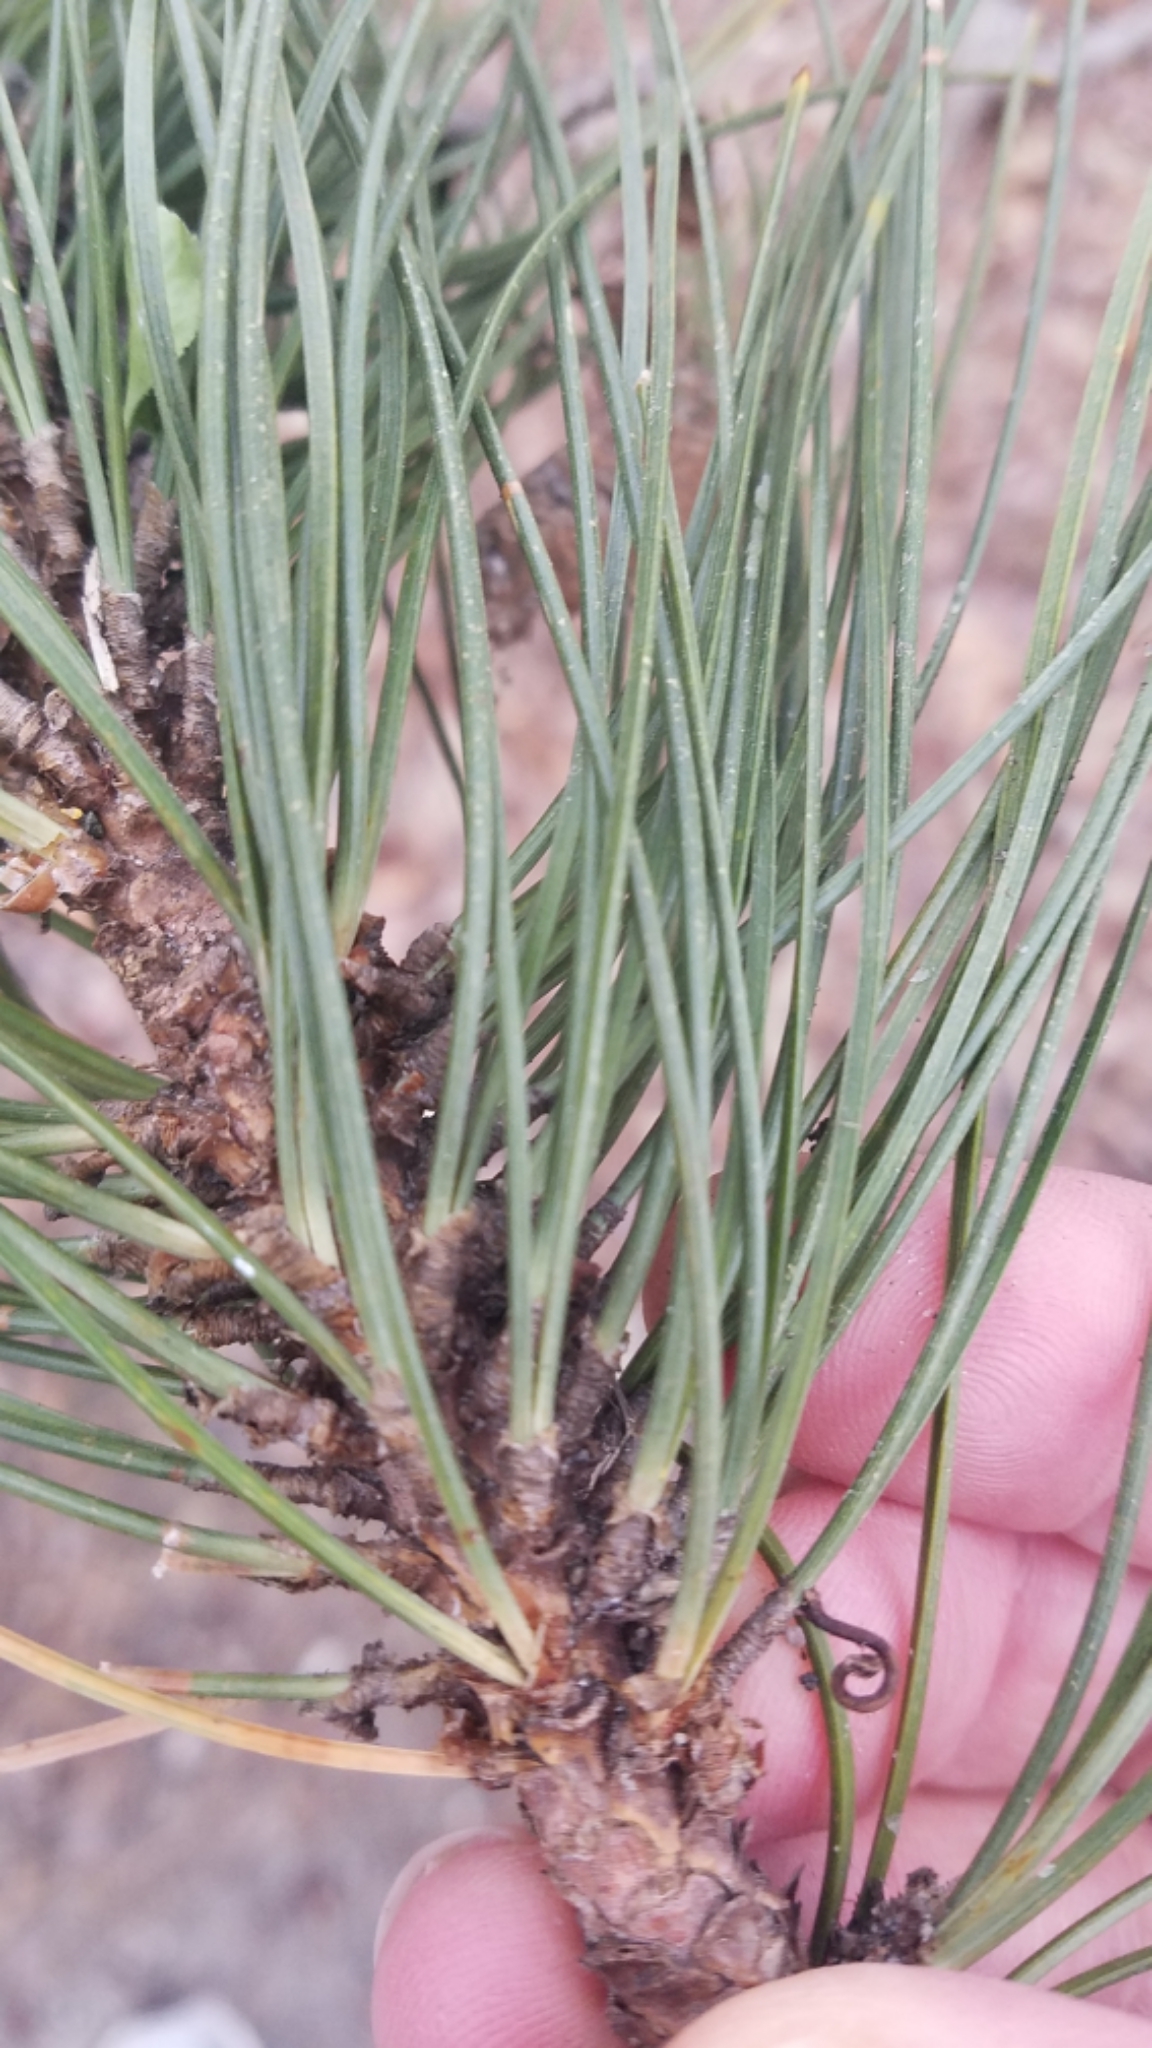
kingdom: Plantae
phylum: Tracheophyta
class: Pinopsida
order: Pinales
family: Pinaceae
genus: Pinus
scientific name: Pinus resinosa
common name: Norway pine
